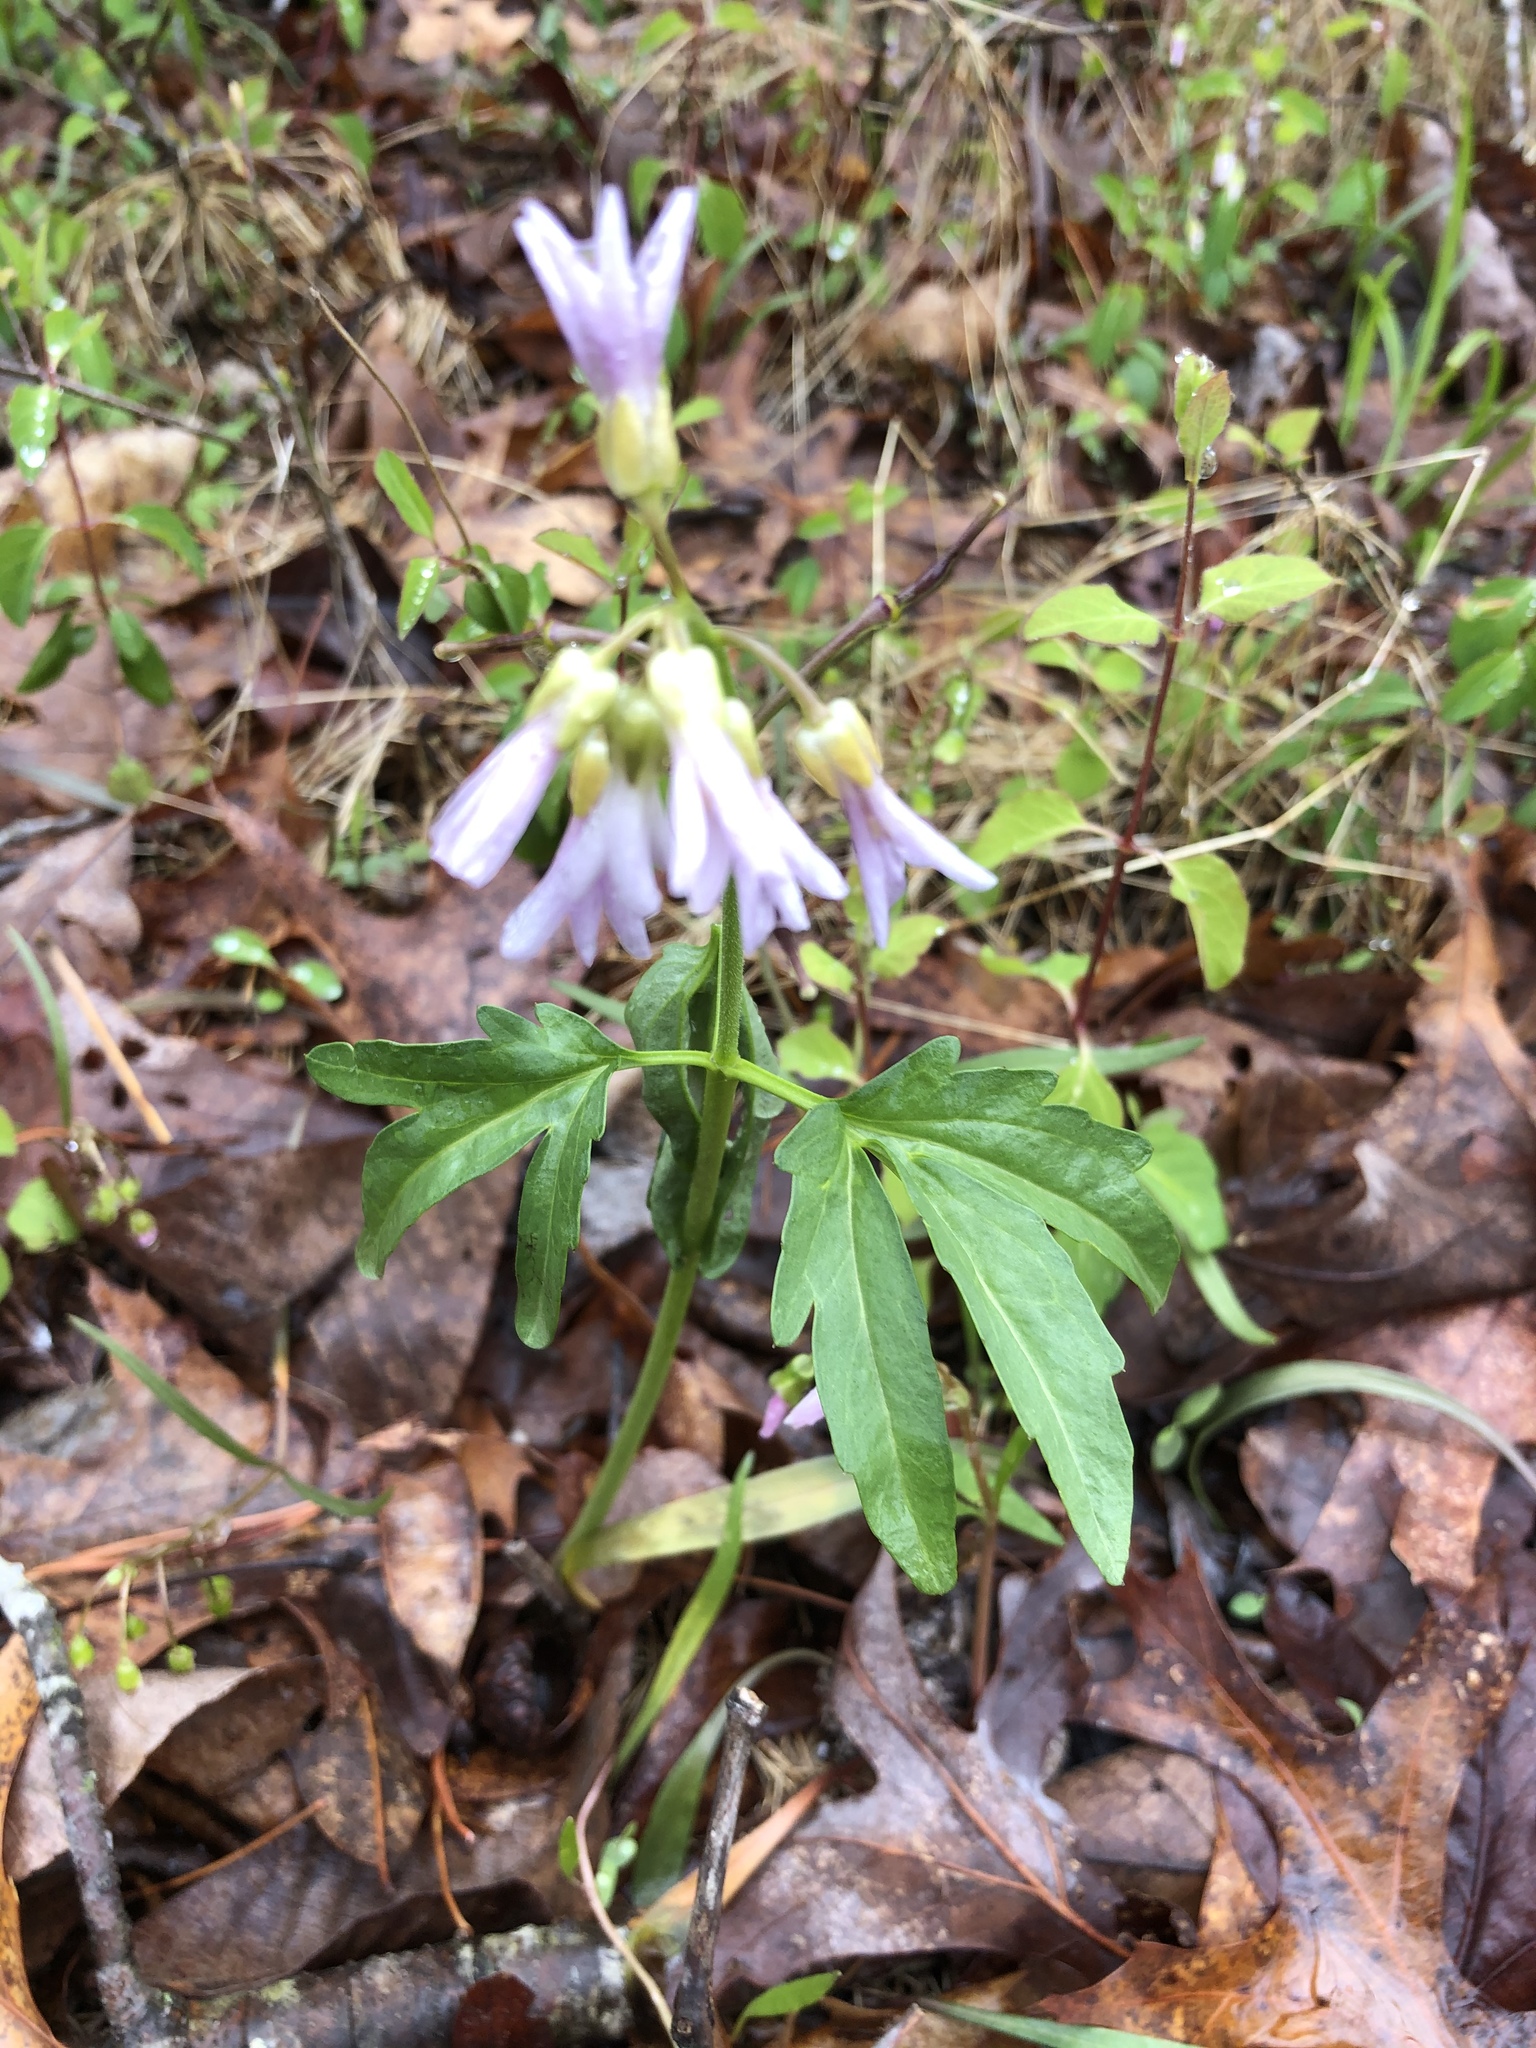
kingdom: Plantae
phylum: Tracheophyta
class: Magnoliopsida
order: Brassicales
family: Brassicaceae
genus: Cardamine
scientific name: Cardamine concatenata
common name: Cut-leaf toothcup
